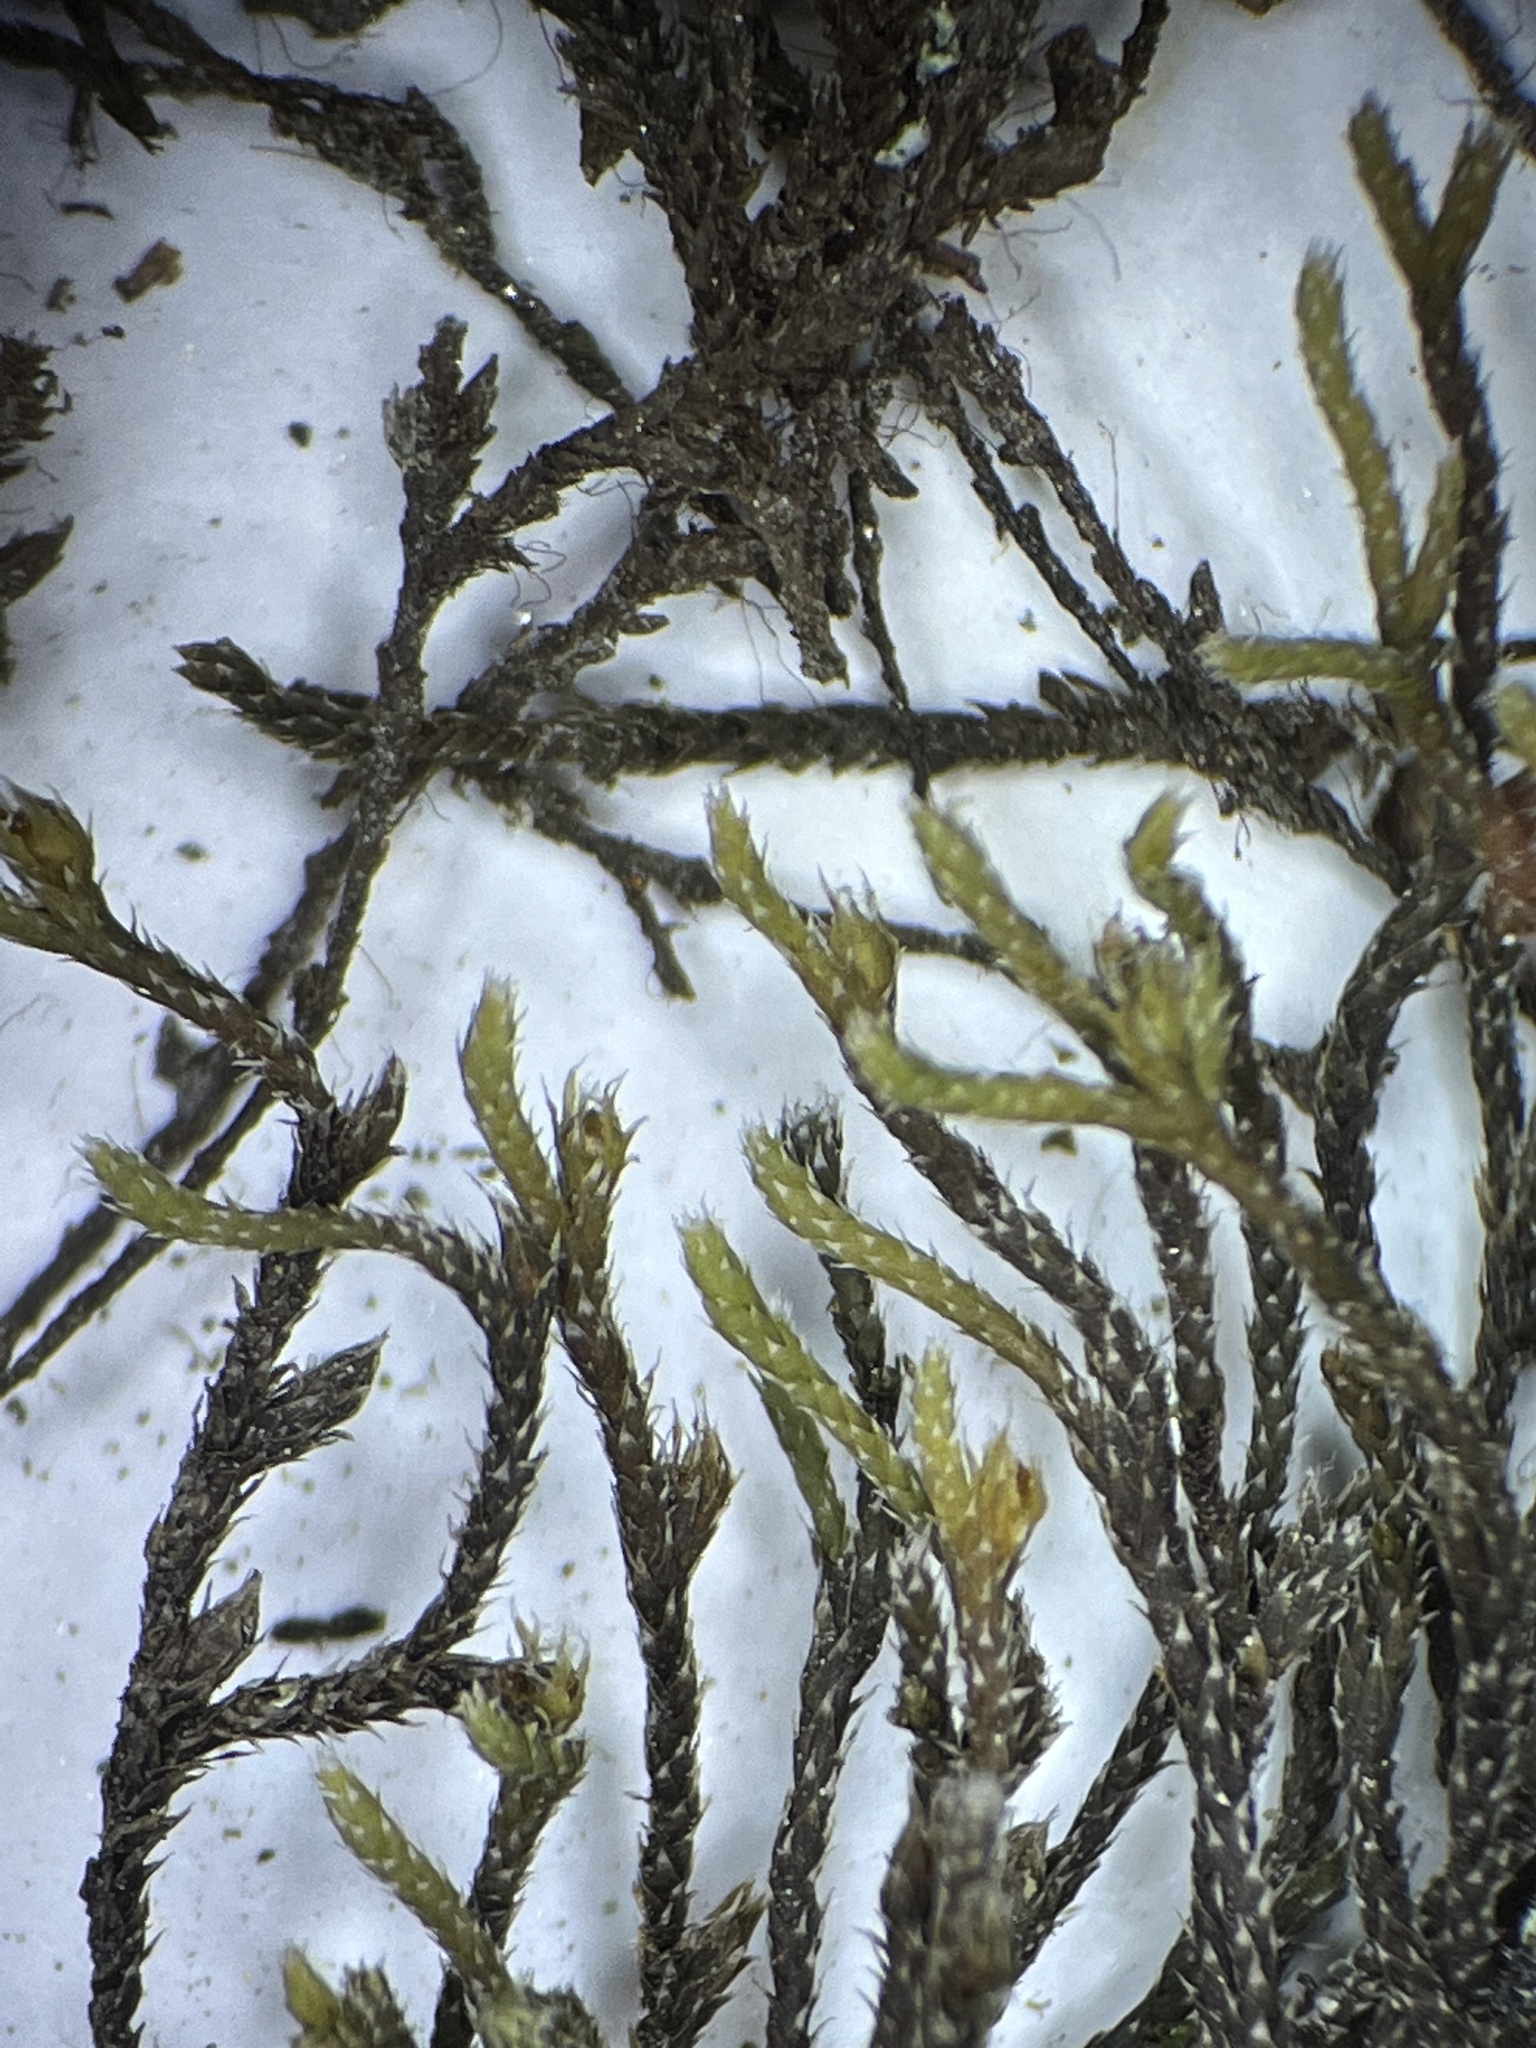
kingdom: Plantae
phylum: Bryophyta
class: Bryopsida
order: Hedwigiales
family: Hedwigiaceae
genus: Hedwigia
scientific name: Hedwigia ciliata
